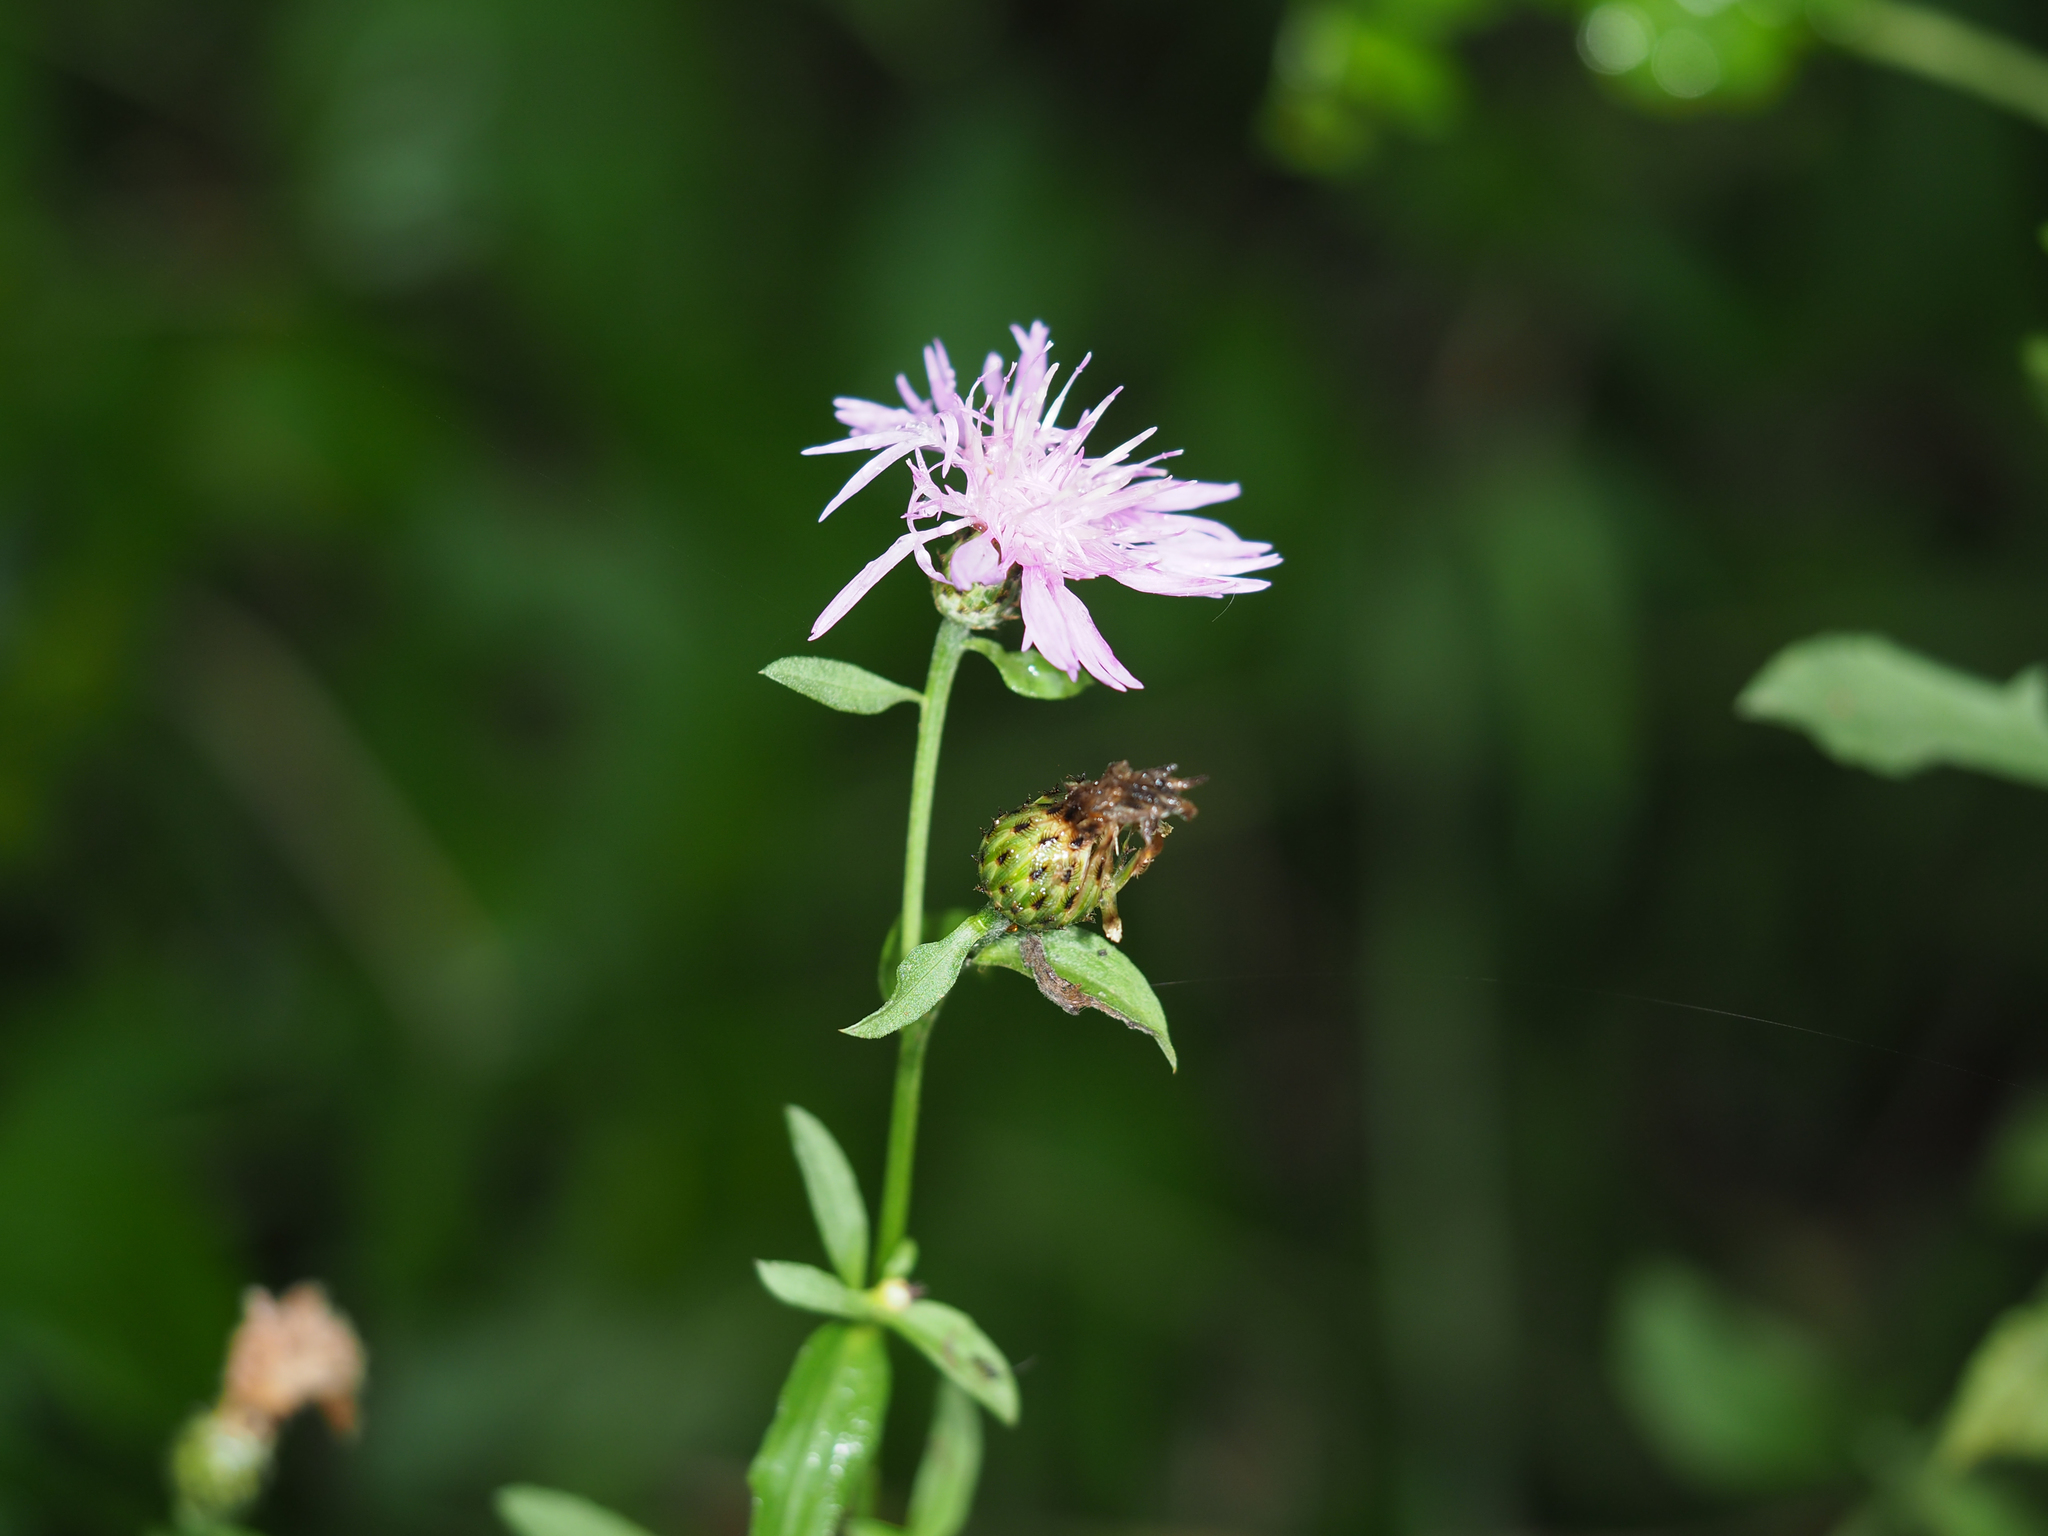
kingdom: Plantae
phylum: Tracheophyta
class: Magnoliopsida
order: Asterales
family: Asteraceae
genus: Centaurea
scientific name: Centaurea nigrescens
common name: Tyrol knapweed
